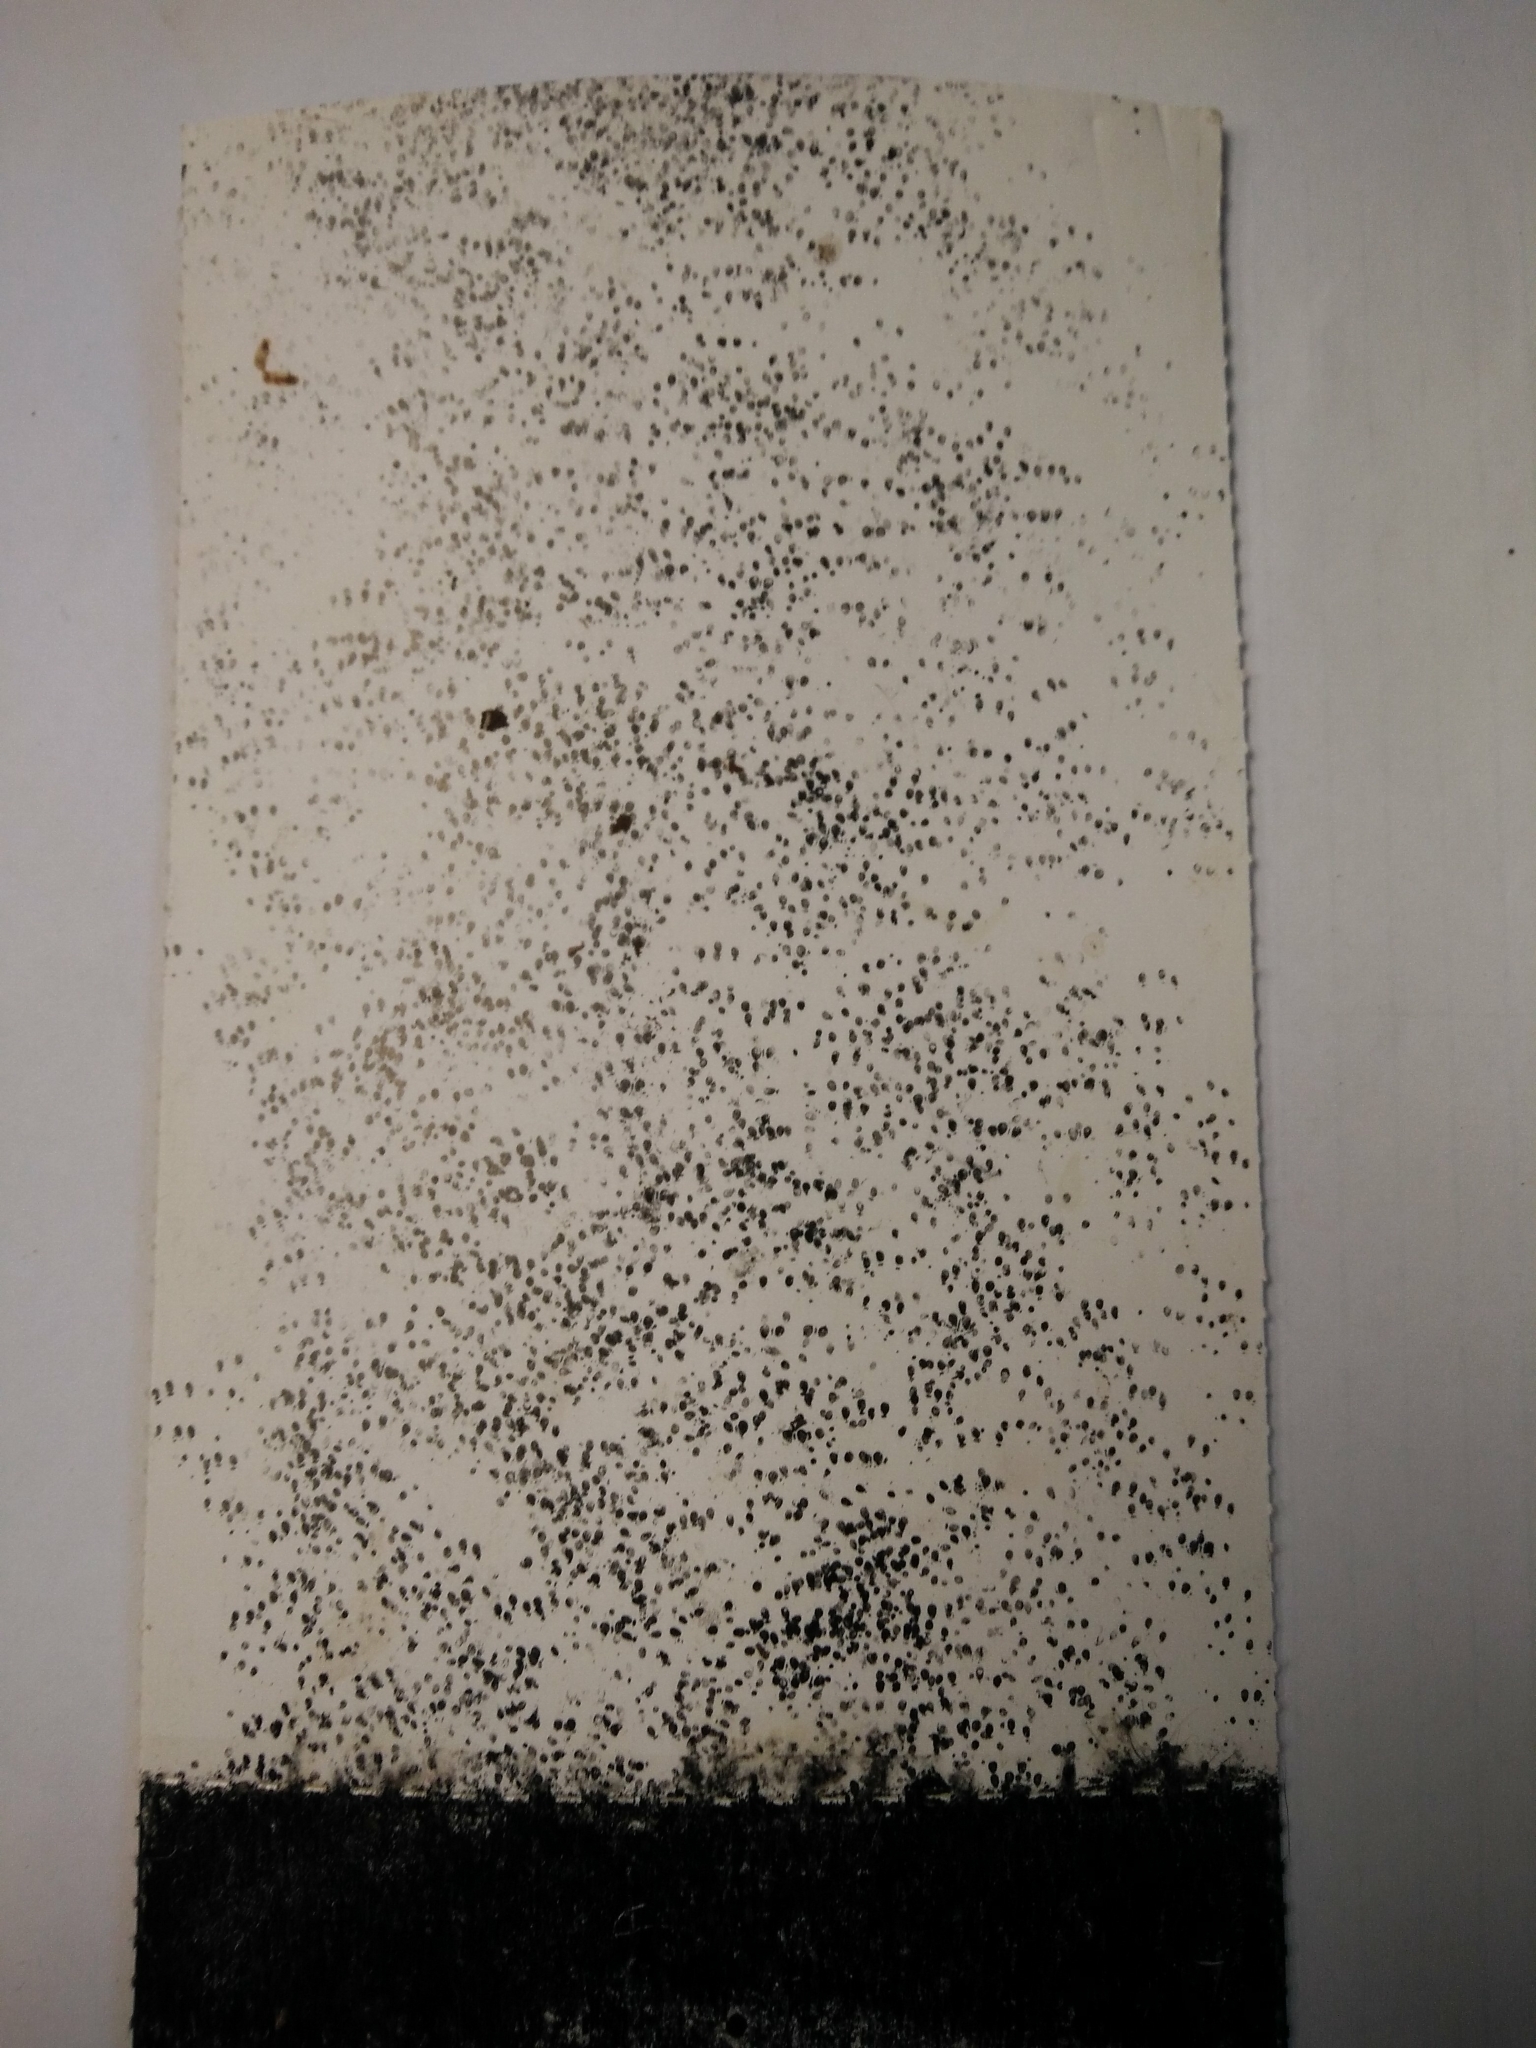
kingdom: Animalia
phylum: Chordata
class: Mammalia
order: Rodentia
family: Muridae
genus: Mus
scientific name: Mus musculus
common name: House mouse
